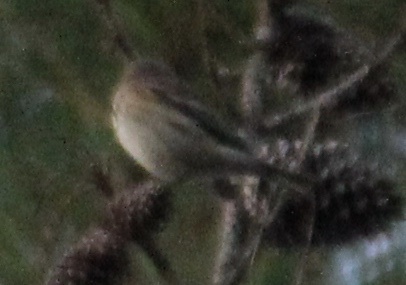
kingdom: Animalia
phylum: Chordata
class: Aves
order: Passeriformes
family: Parulidae
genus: Setophaga
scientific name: Setophaga coronata
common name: Myrtle warbler
